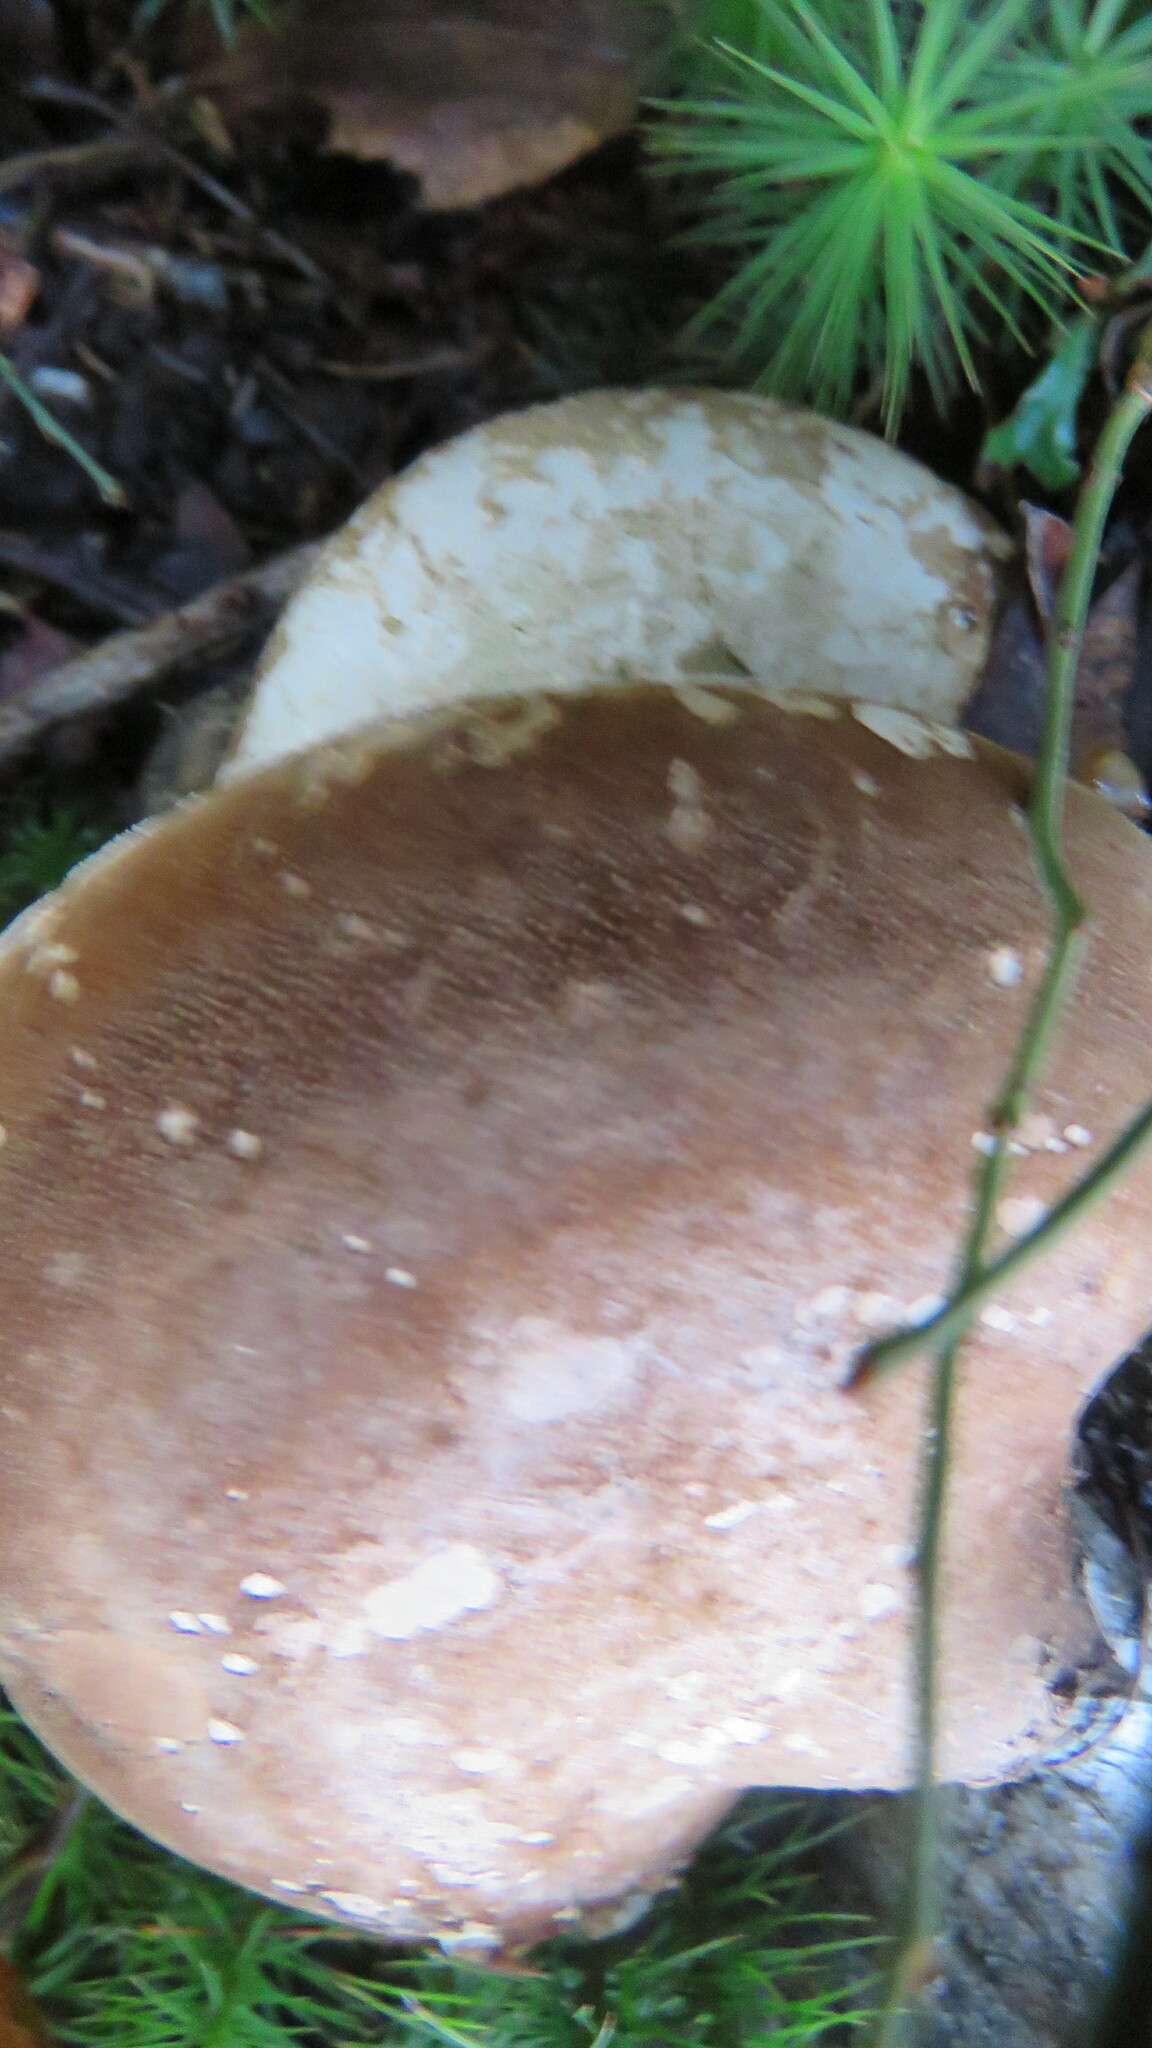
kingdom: Fungi
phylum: Basidiomycota
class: Agaricomycetes
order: Polyporales
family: Fomitopsidaceae
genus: Fomitopsis
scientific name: Fomitopsis betulina
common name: Birch polypore
